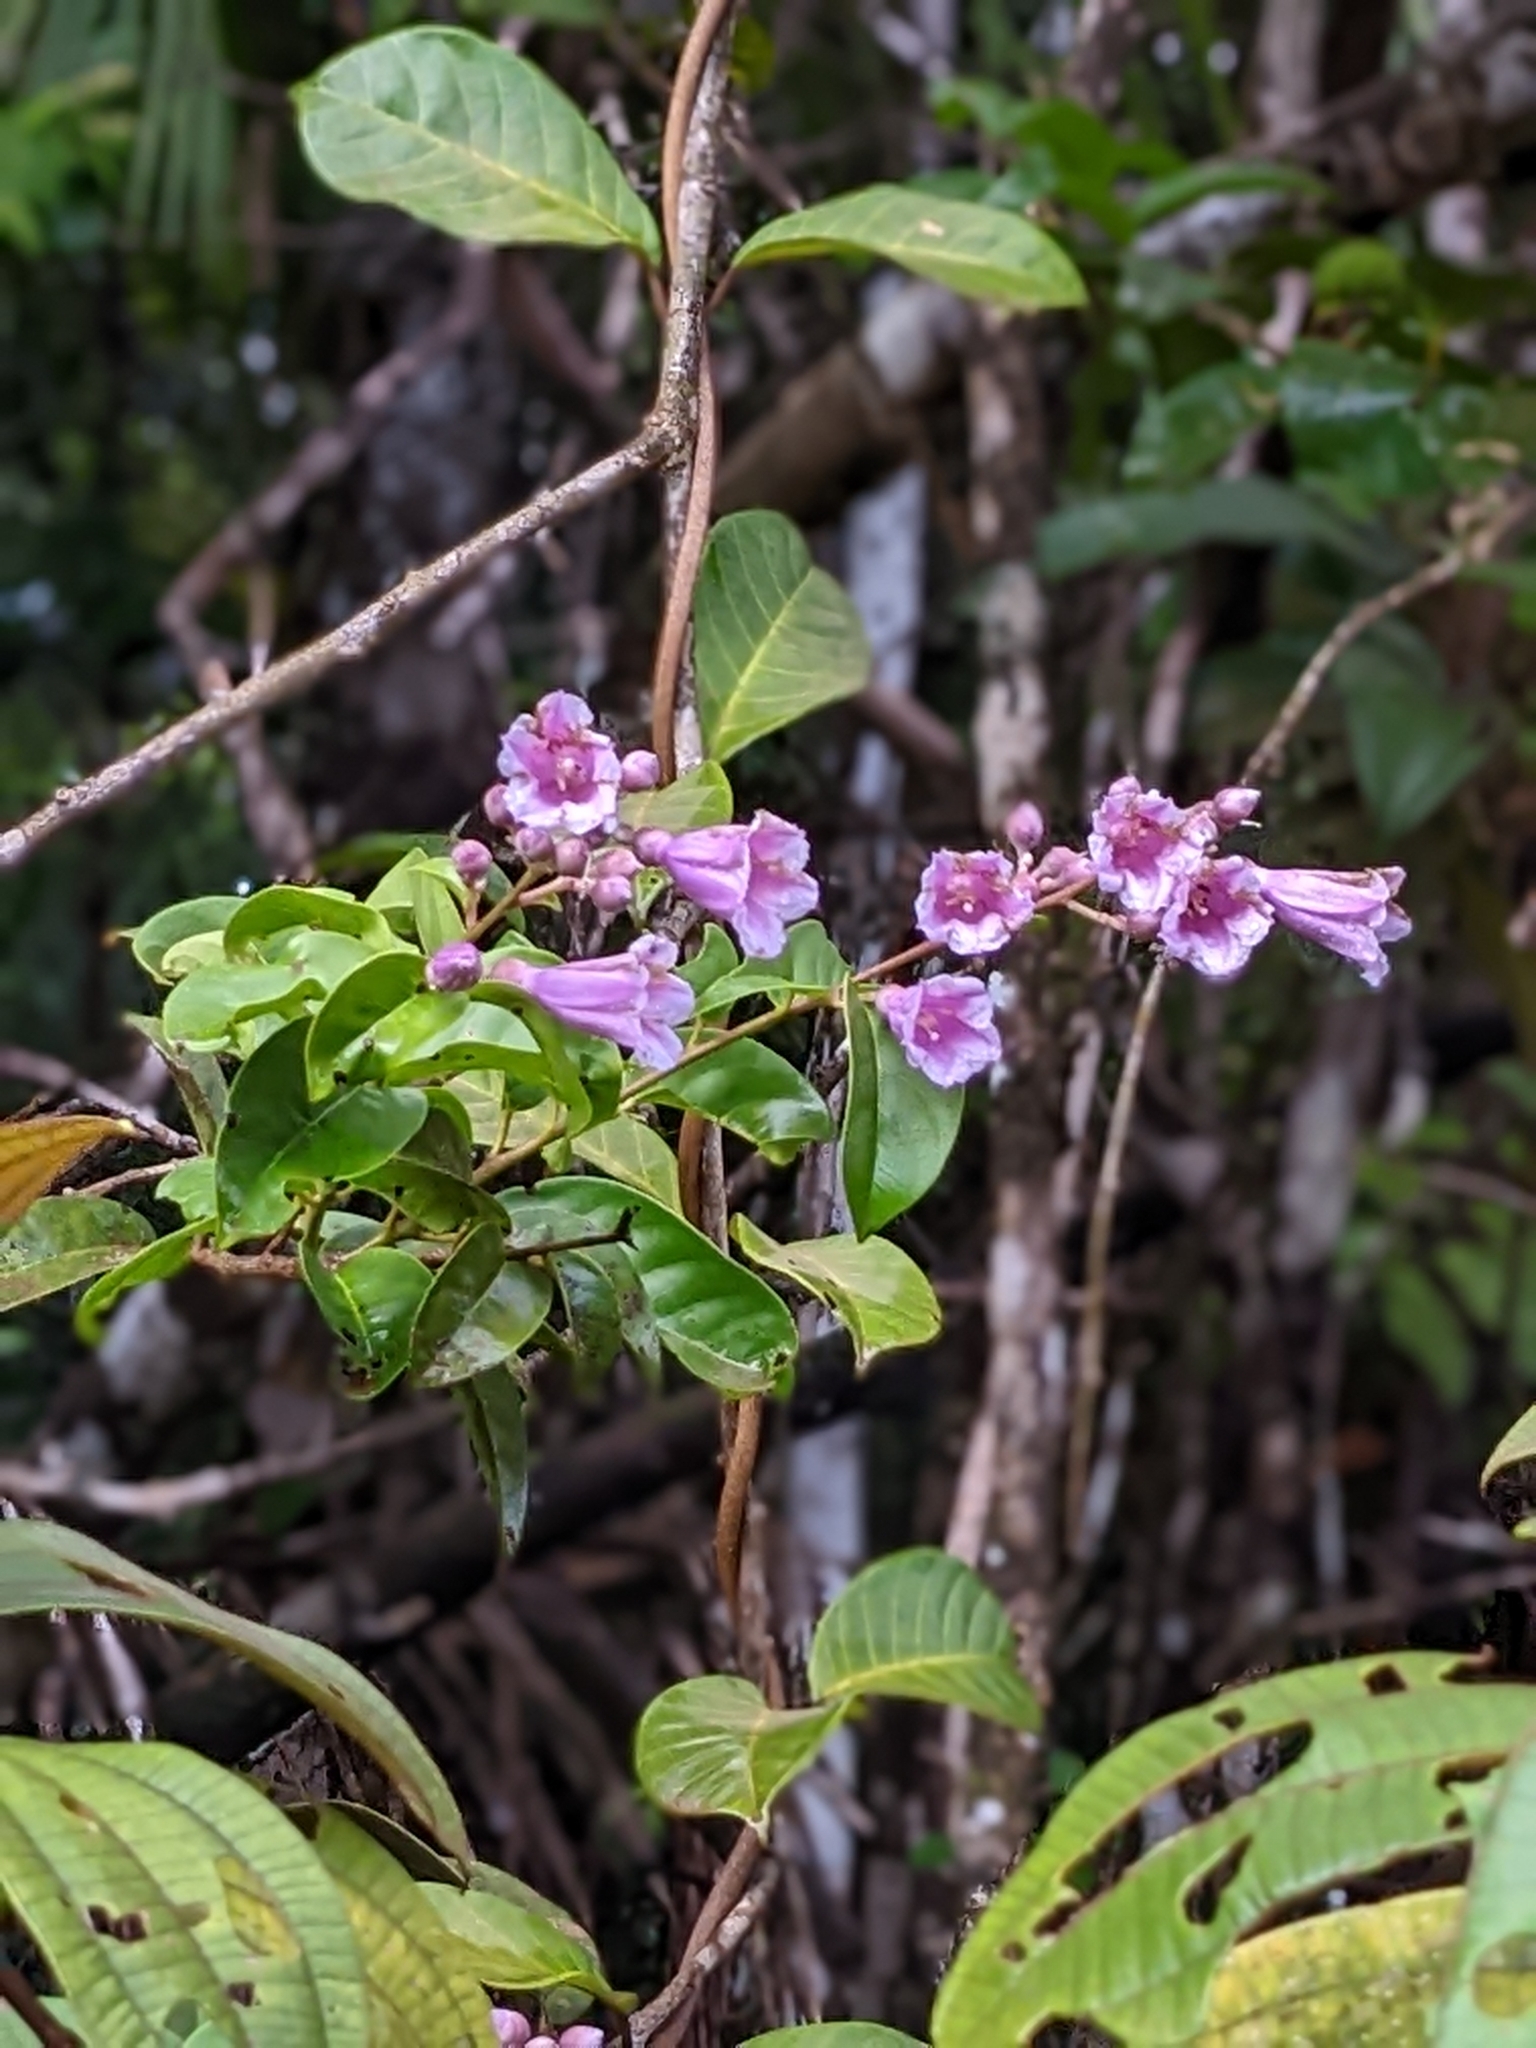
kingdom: Plantae
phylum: Tracheophyta
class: Magnoliopsida
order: Solanales
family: Convolvulaceae
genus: Maripa
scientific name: Maripa scandens
